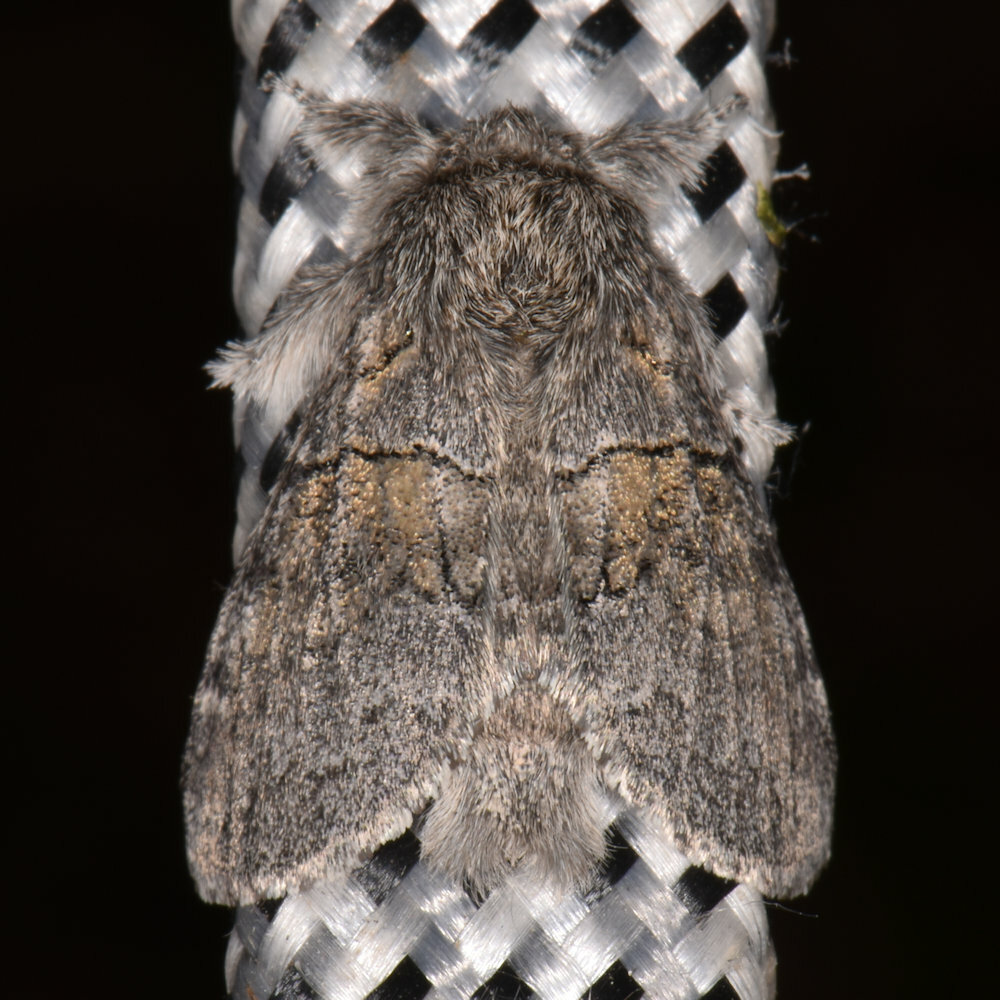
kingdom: Animalia
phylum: Arthropoda
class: Insecta
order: Lepidoptera
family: Notodontidae
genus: Gluphisia
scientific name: Gluphisia septentrionis
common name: Common gluphisia
